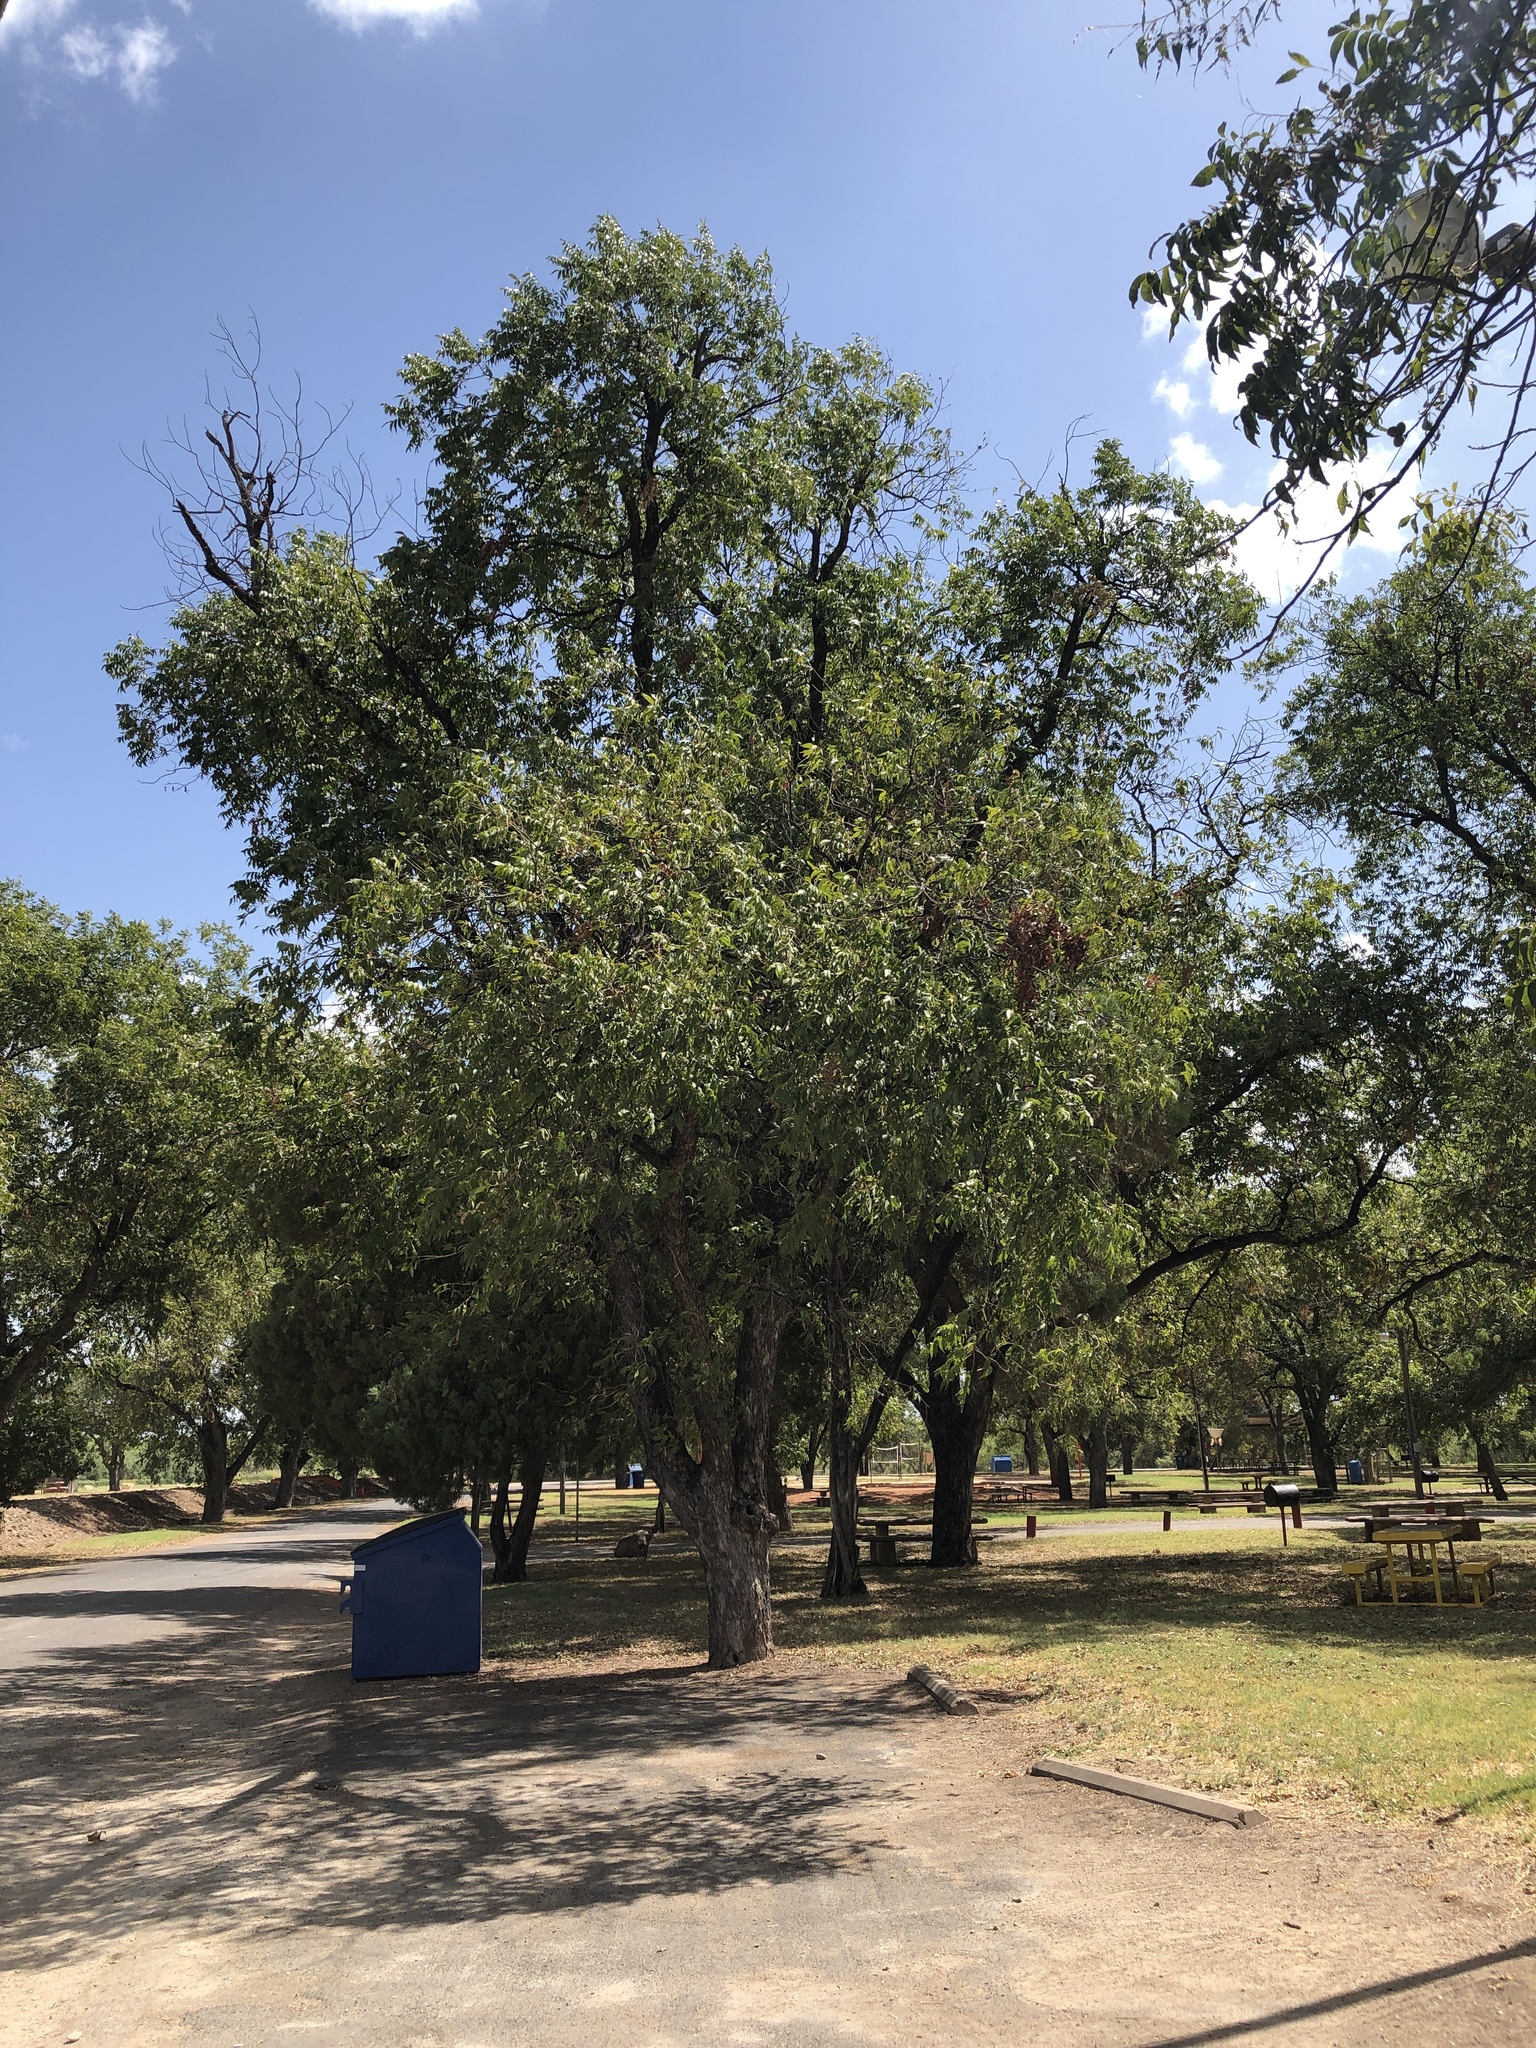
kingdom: Plantae
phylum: Tracheophyta
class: Magnoliopsida
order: Fagales
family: Juglandaceae
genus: Carya
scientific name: Carya illinoinensis
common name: Pecan
